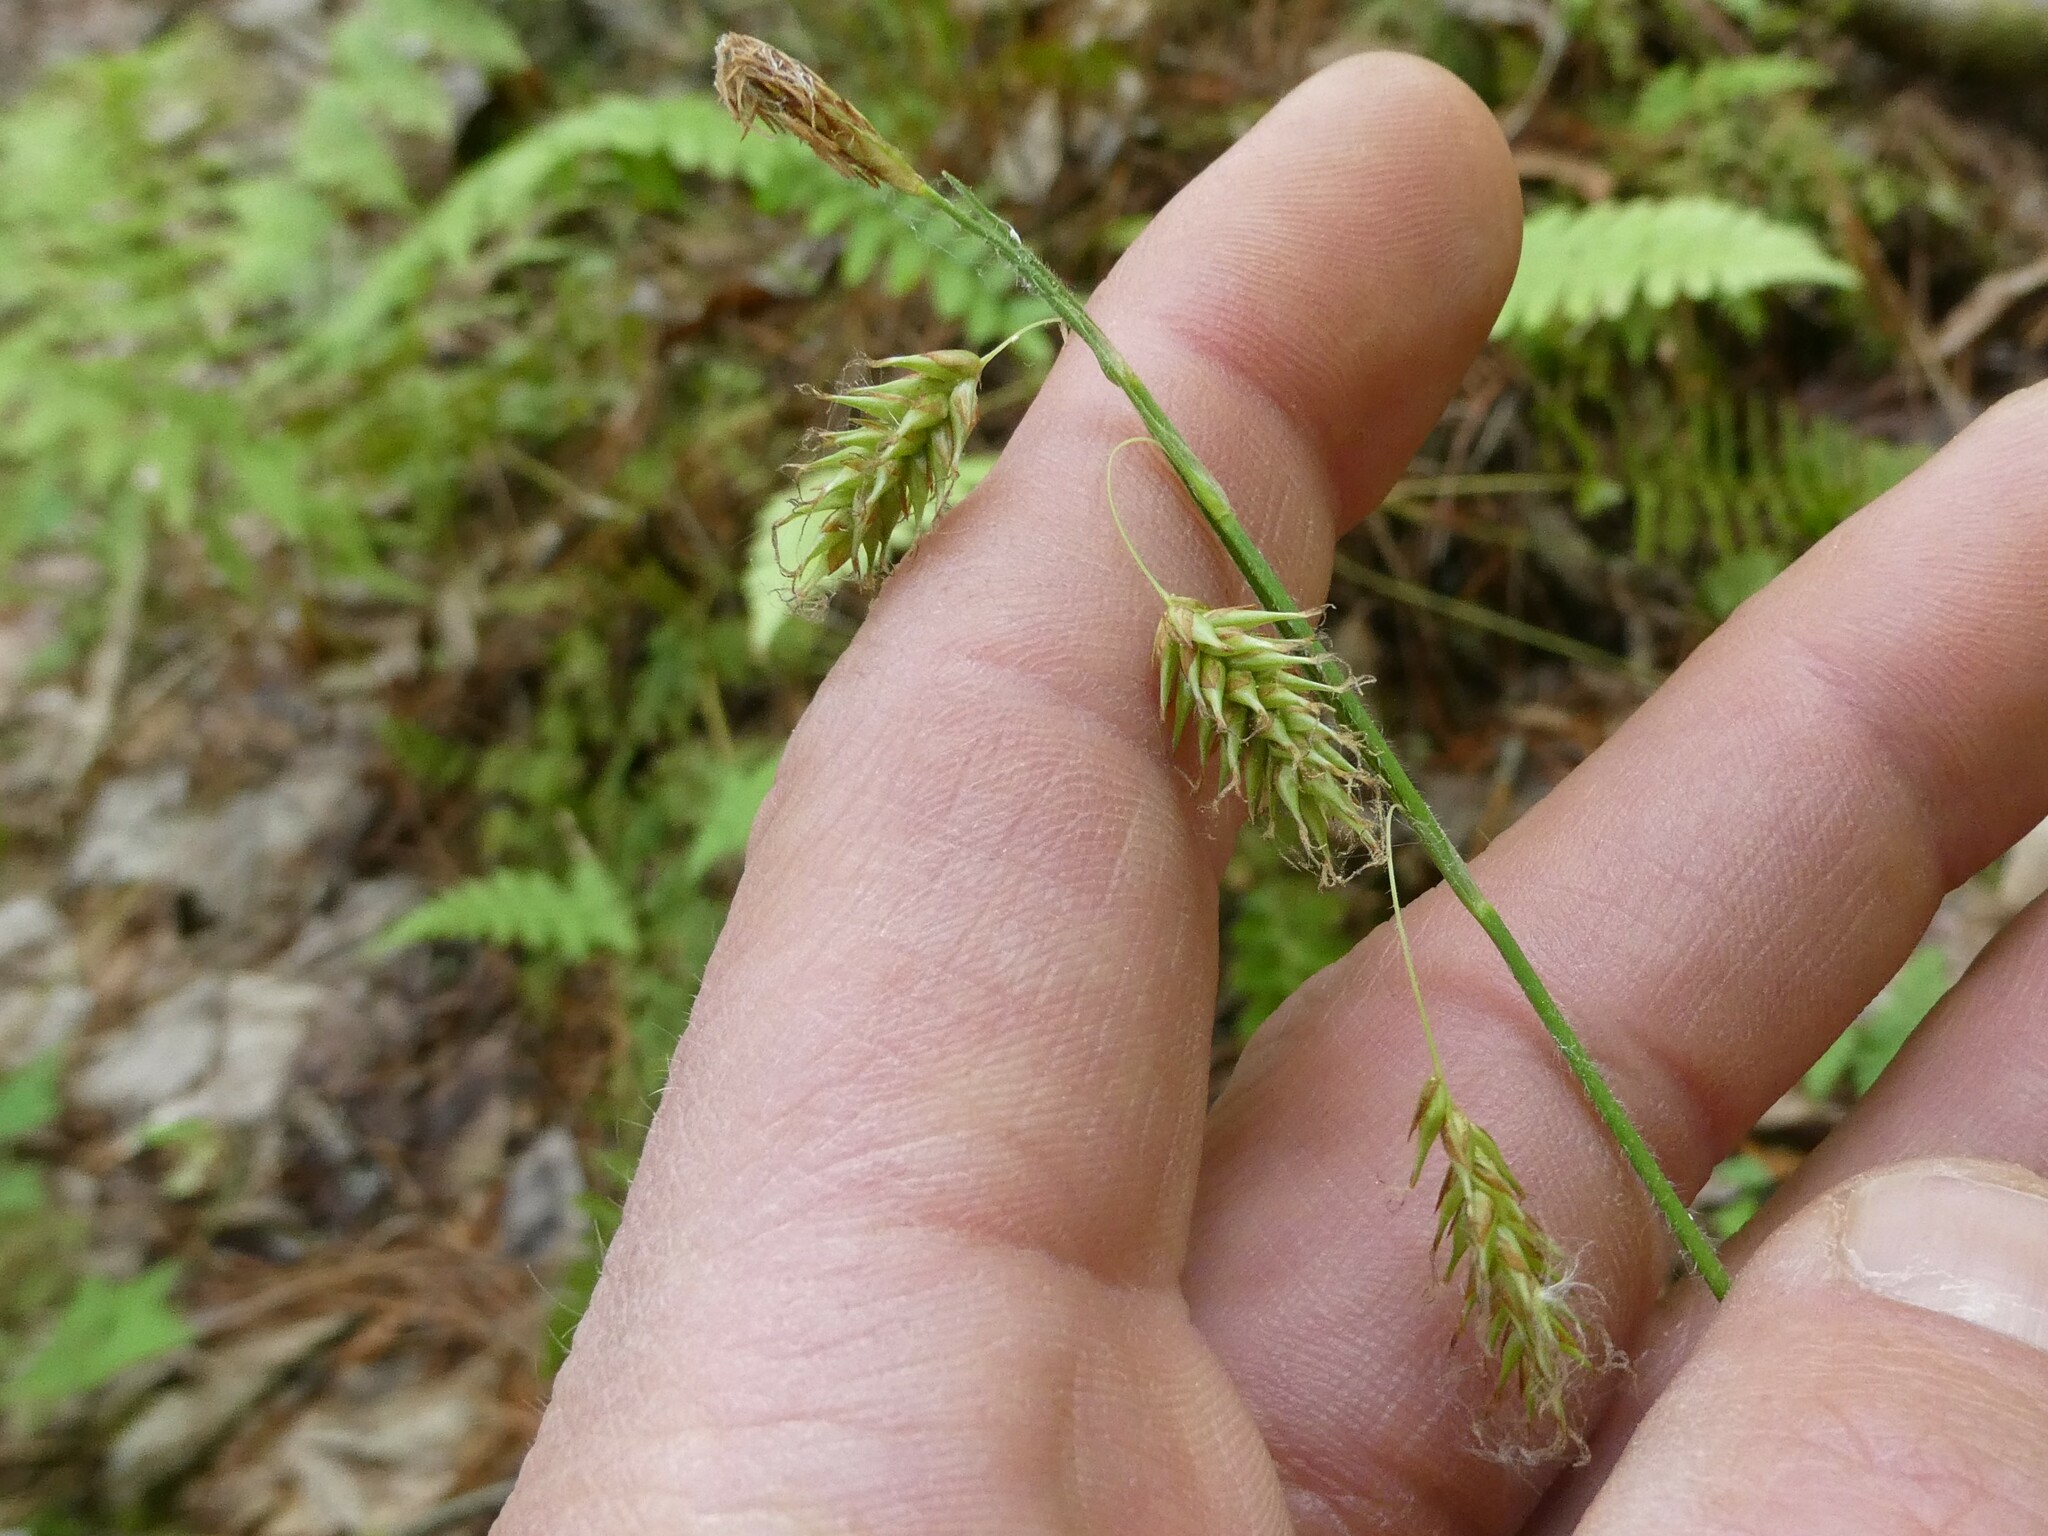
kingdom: Plantae
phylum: Tracheophyta
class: Liliopsida
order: Poales
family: Cyperaceae
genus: Carex
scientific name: Carex castanea
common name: Chestnut sedge
